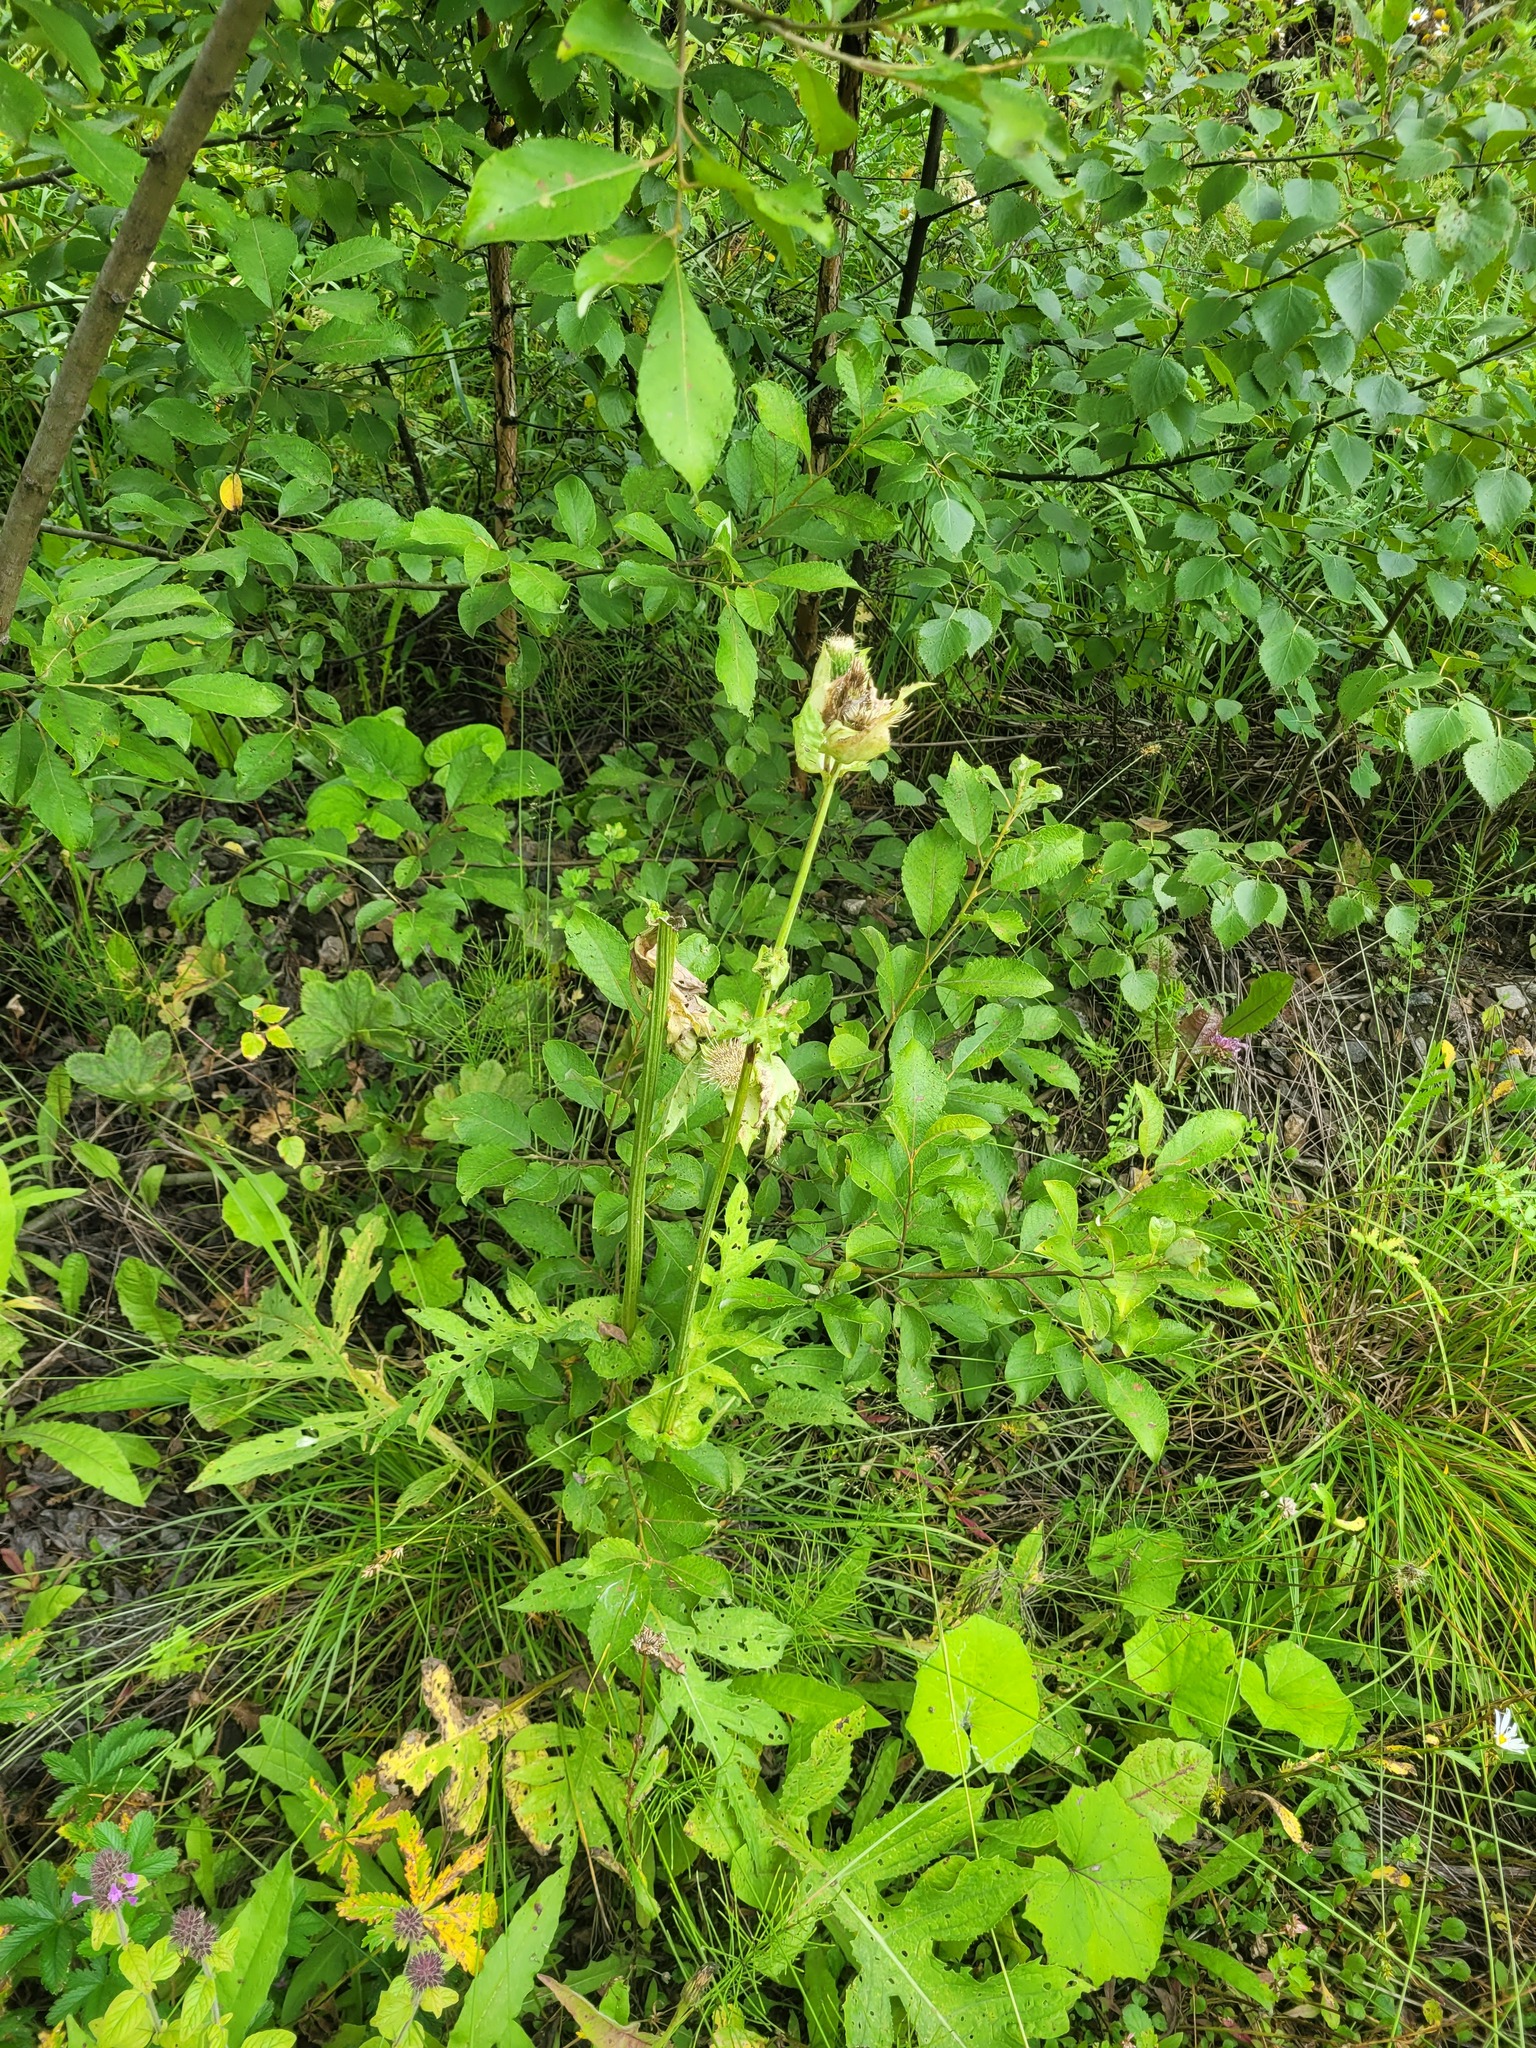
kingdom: Plantae
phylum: Tracheophyta
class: Magnoliopsida
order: Asterales
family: Asteraceae
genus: Cirsium
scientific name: Cirsium oleraceum
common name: Cabbage thistle
